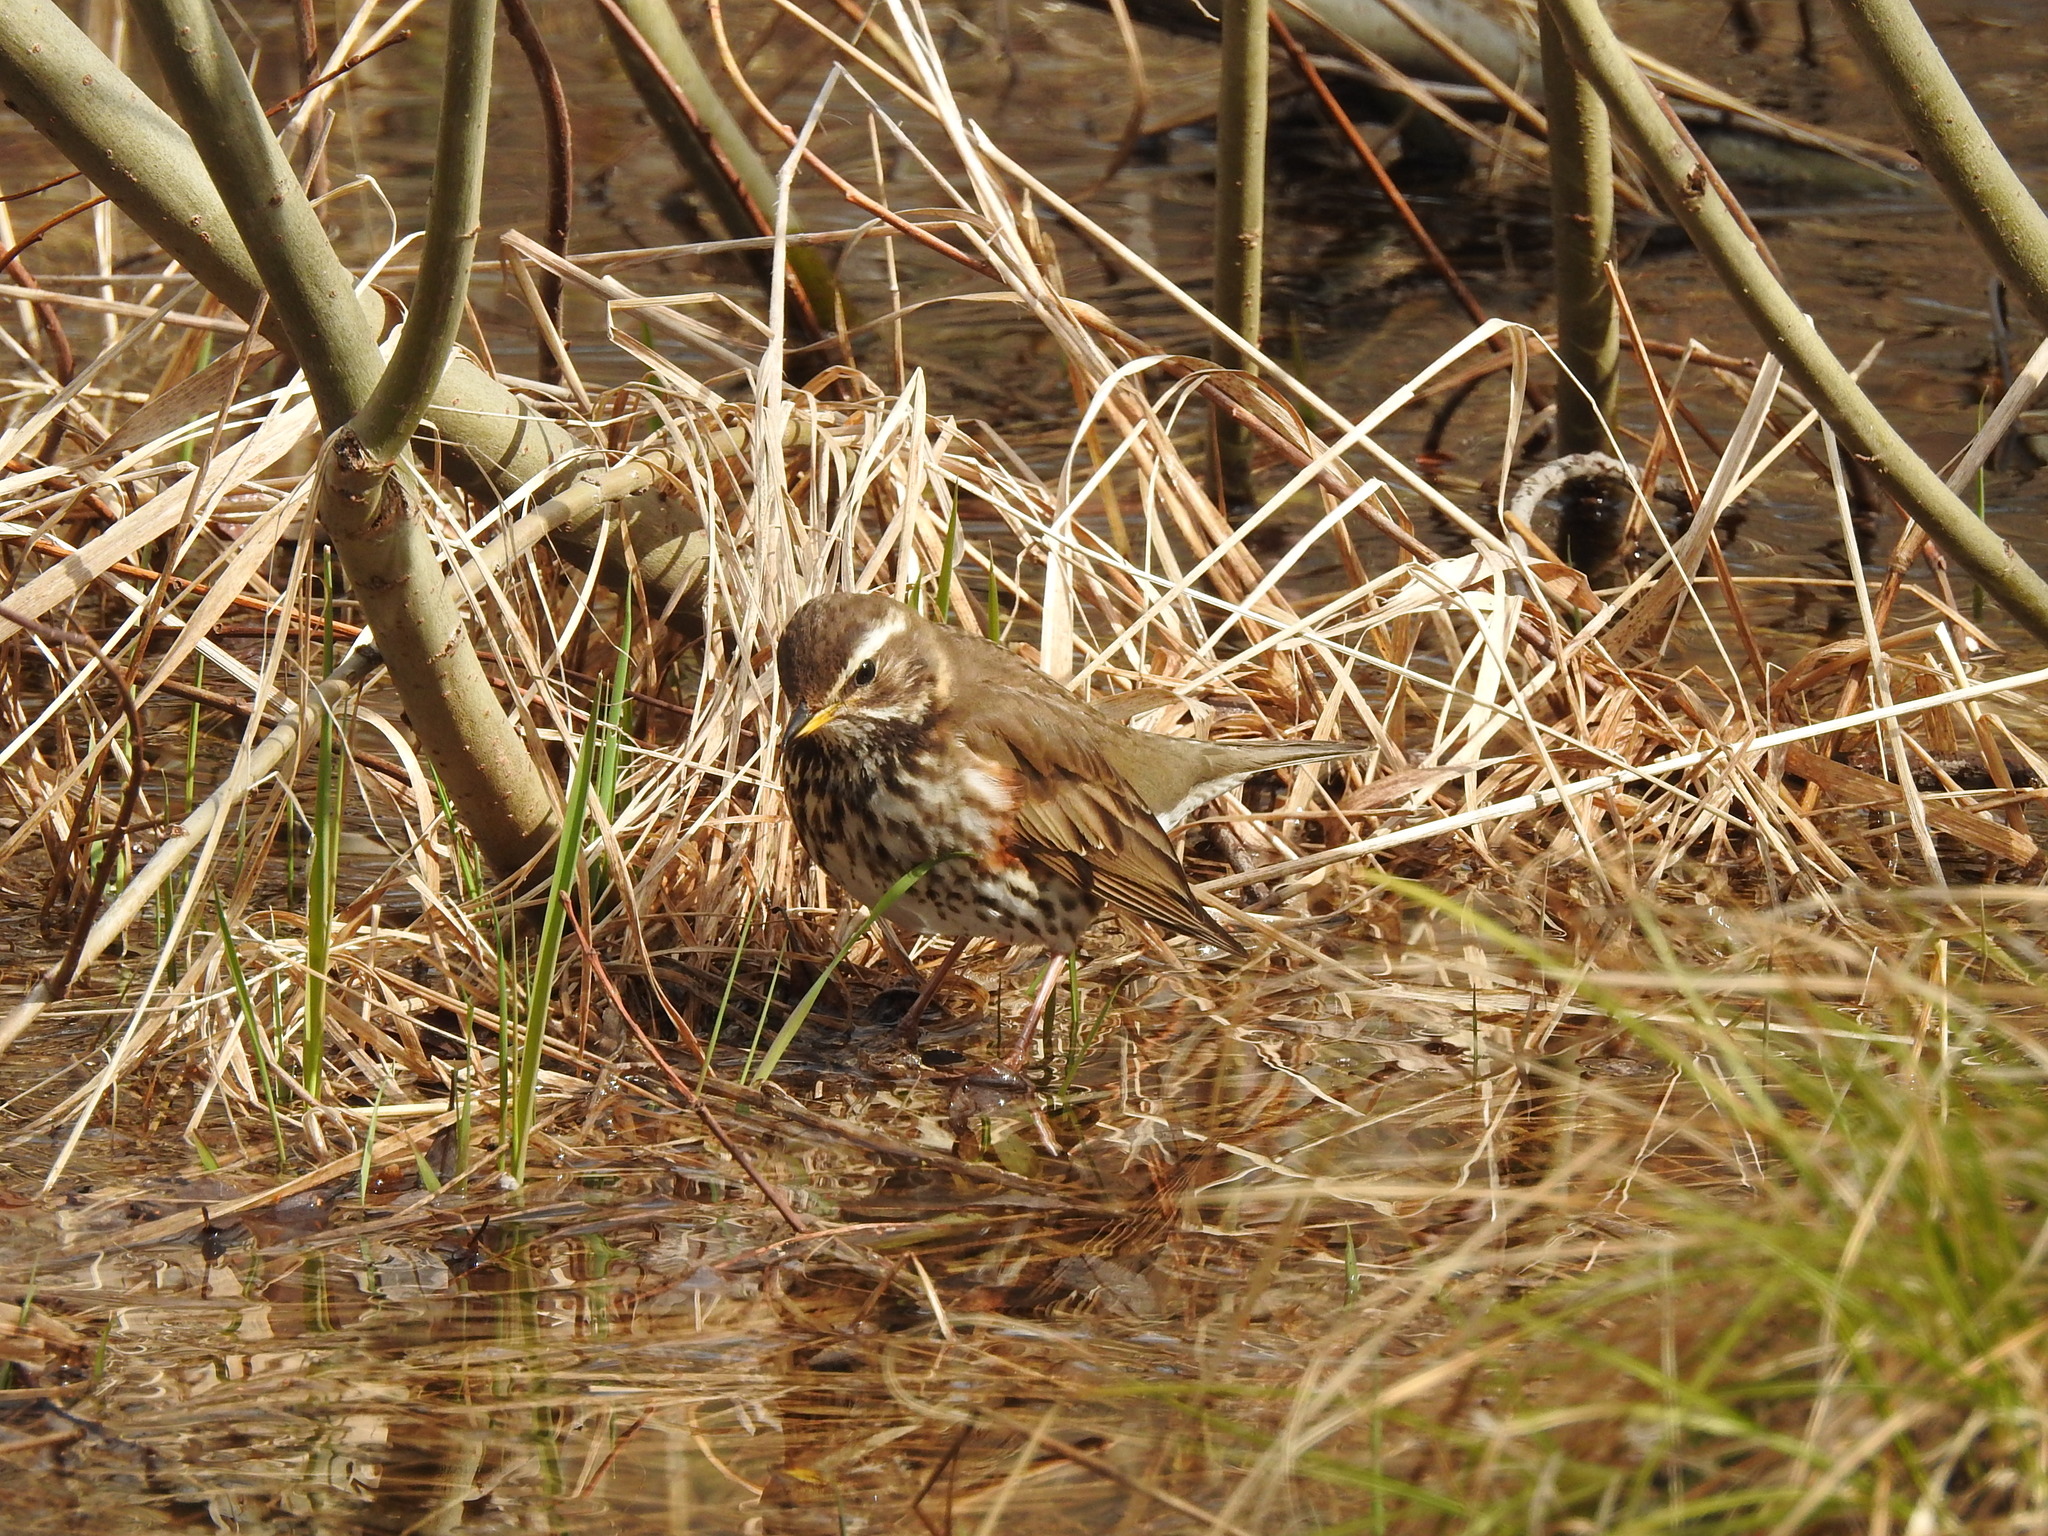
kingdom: Animalia
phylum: Chordata
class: Aves
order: Passeriformes
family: Turdidae
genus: Turdus
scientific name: Turdus iliacus
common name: Redwing
